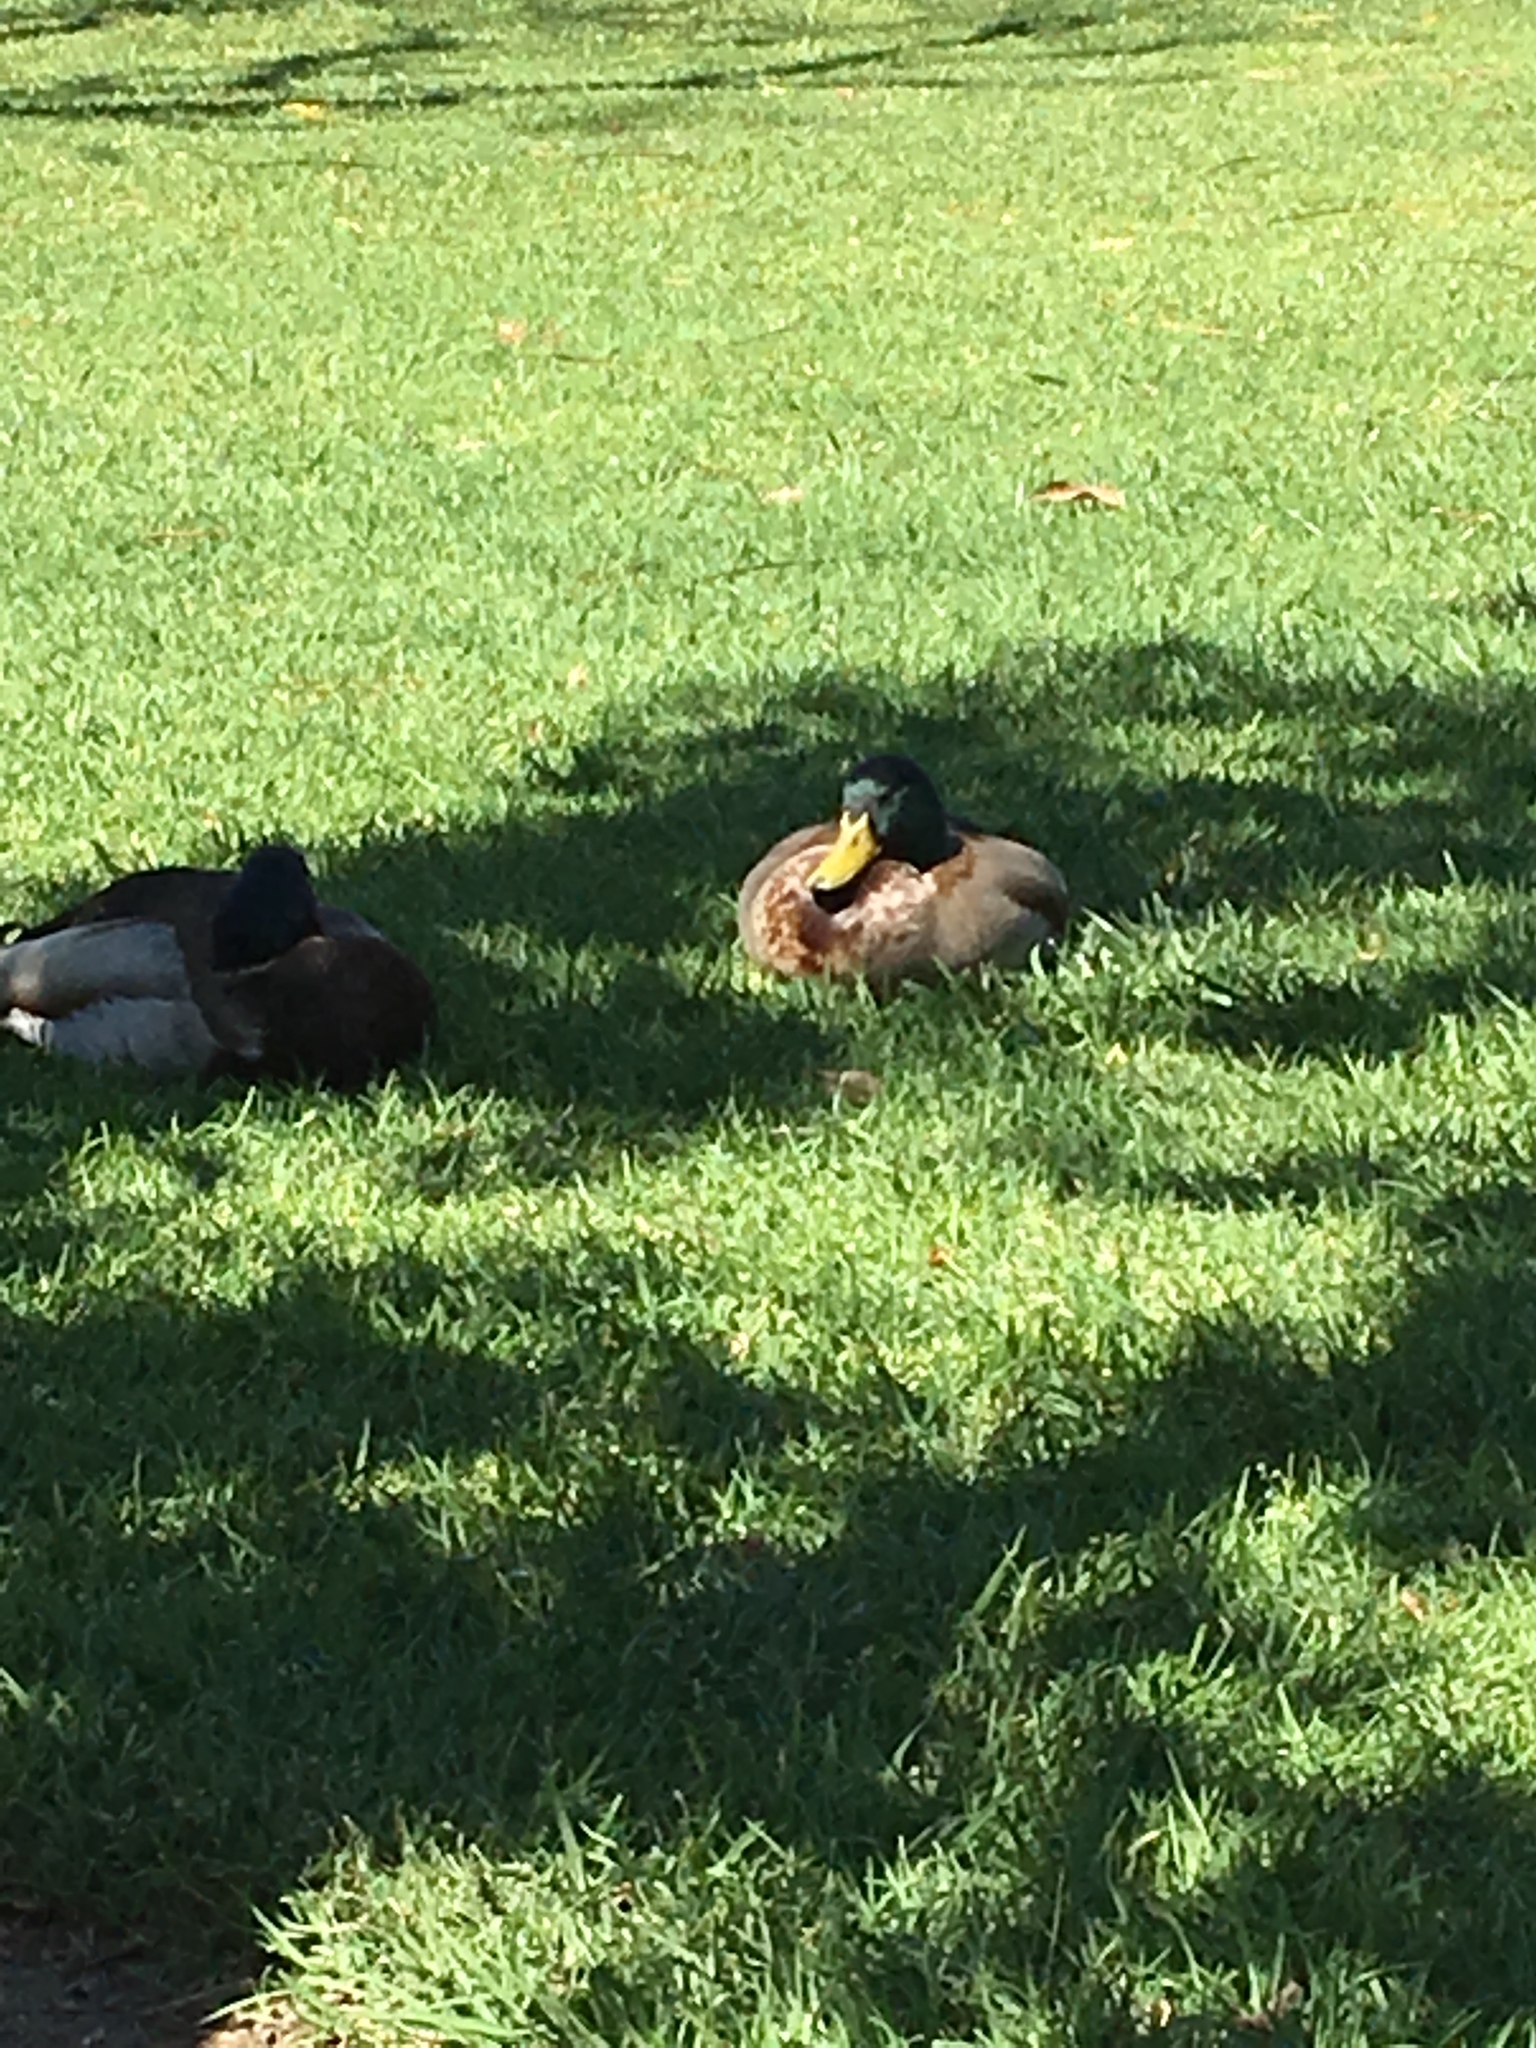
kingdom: Animalia
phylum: Chordata
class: Aves
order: Anseriformes
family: Anatidae
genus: Anas
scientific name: Anas platyrhynchos
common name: Mallard
